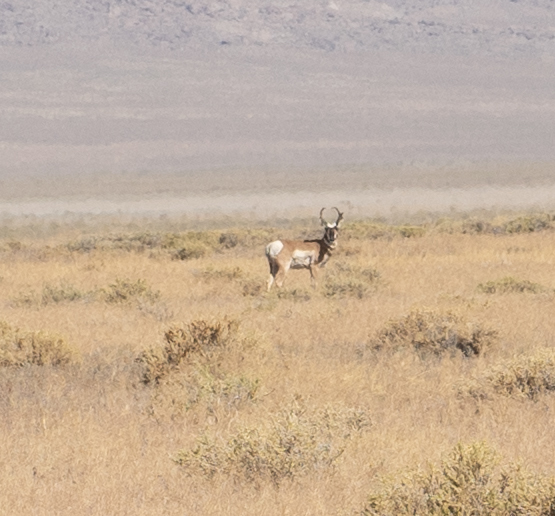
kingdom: Animalia
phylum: Chordata
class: Mammalia
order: Artiodactyla
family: Antilocapridae
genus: Antilocapra
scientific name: Antilocapra americana
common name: Pronghorn
